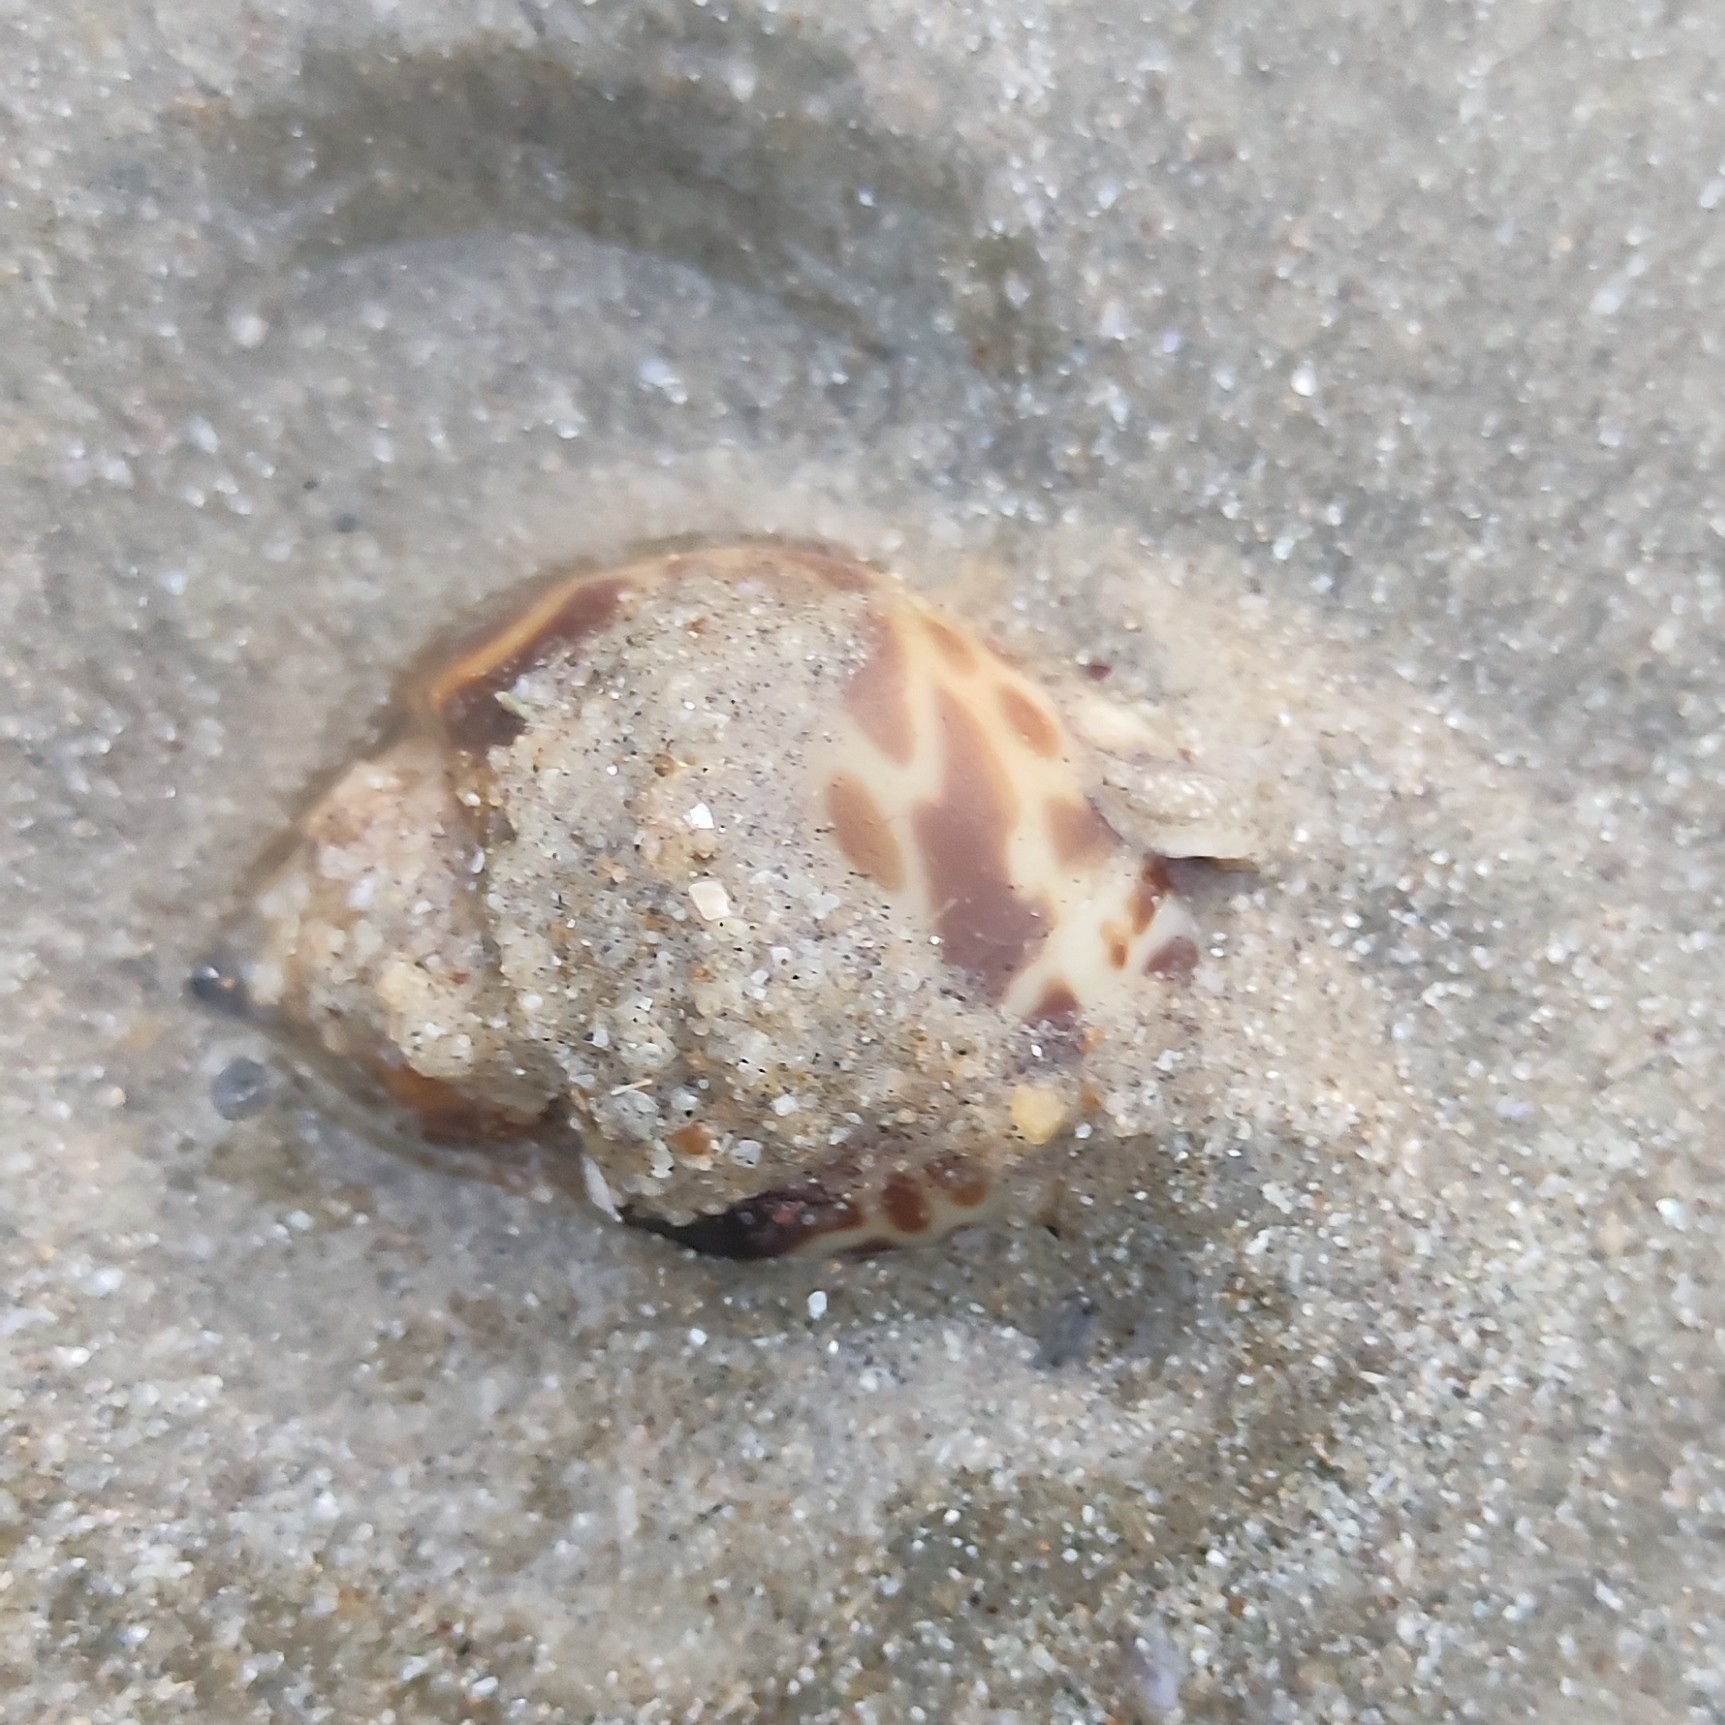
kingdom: Animalia
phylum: Mollusca
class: Gastropoda
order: Neogastropoda
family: Babyloniidae
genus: Babylonia
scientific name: Babylonia spirata
